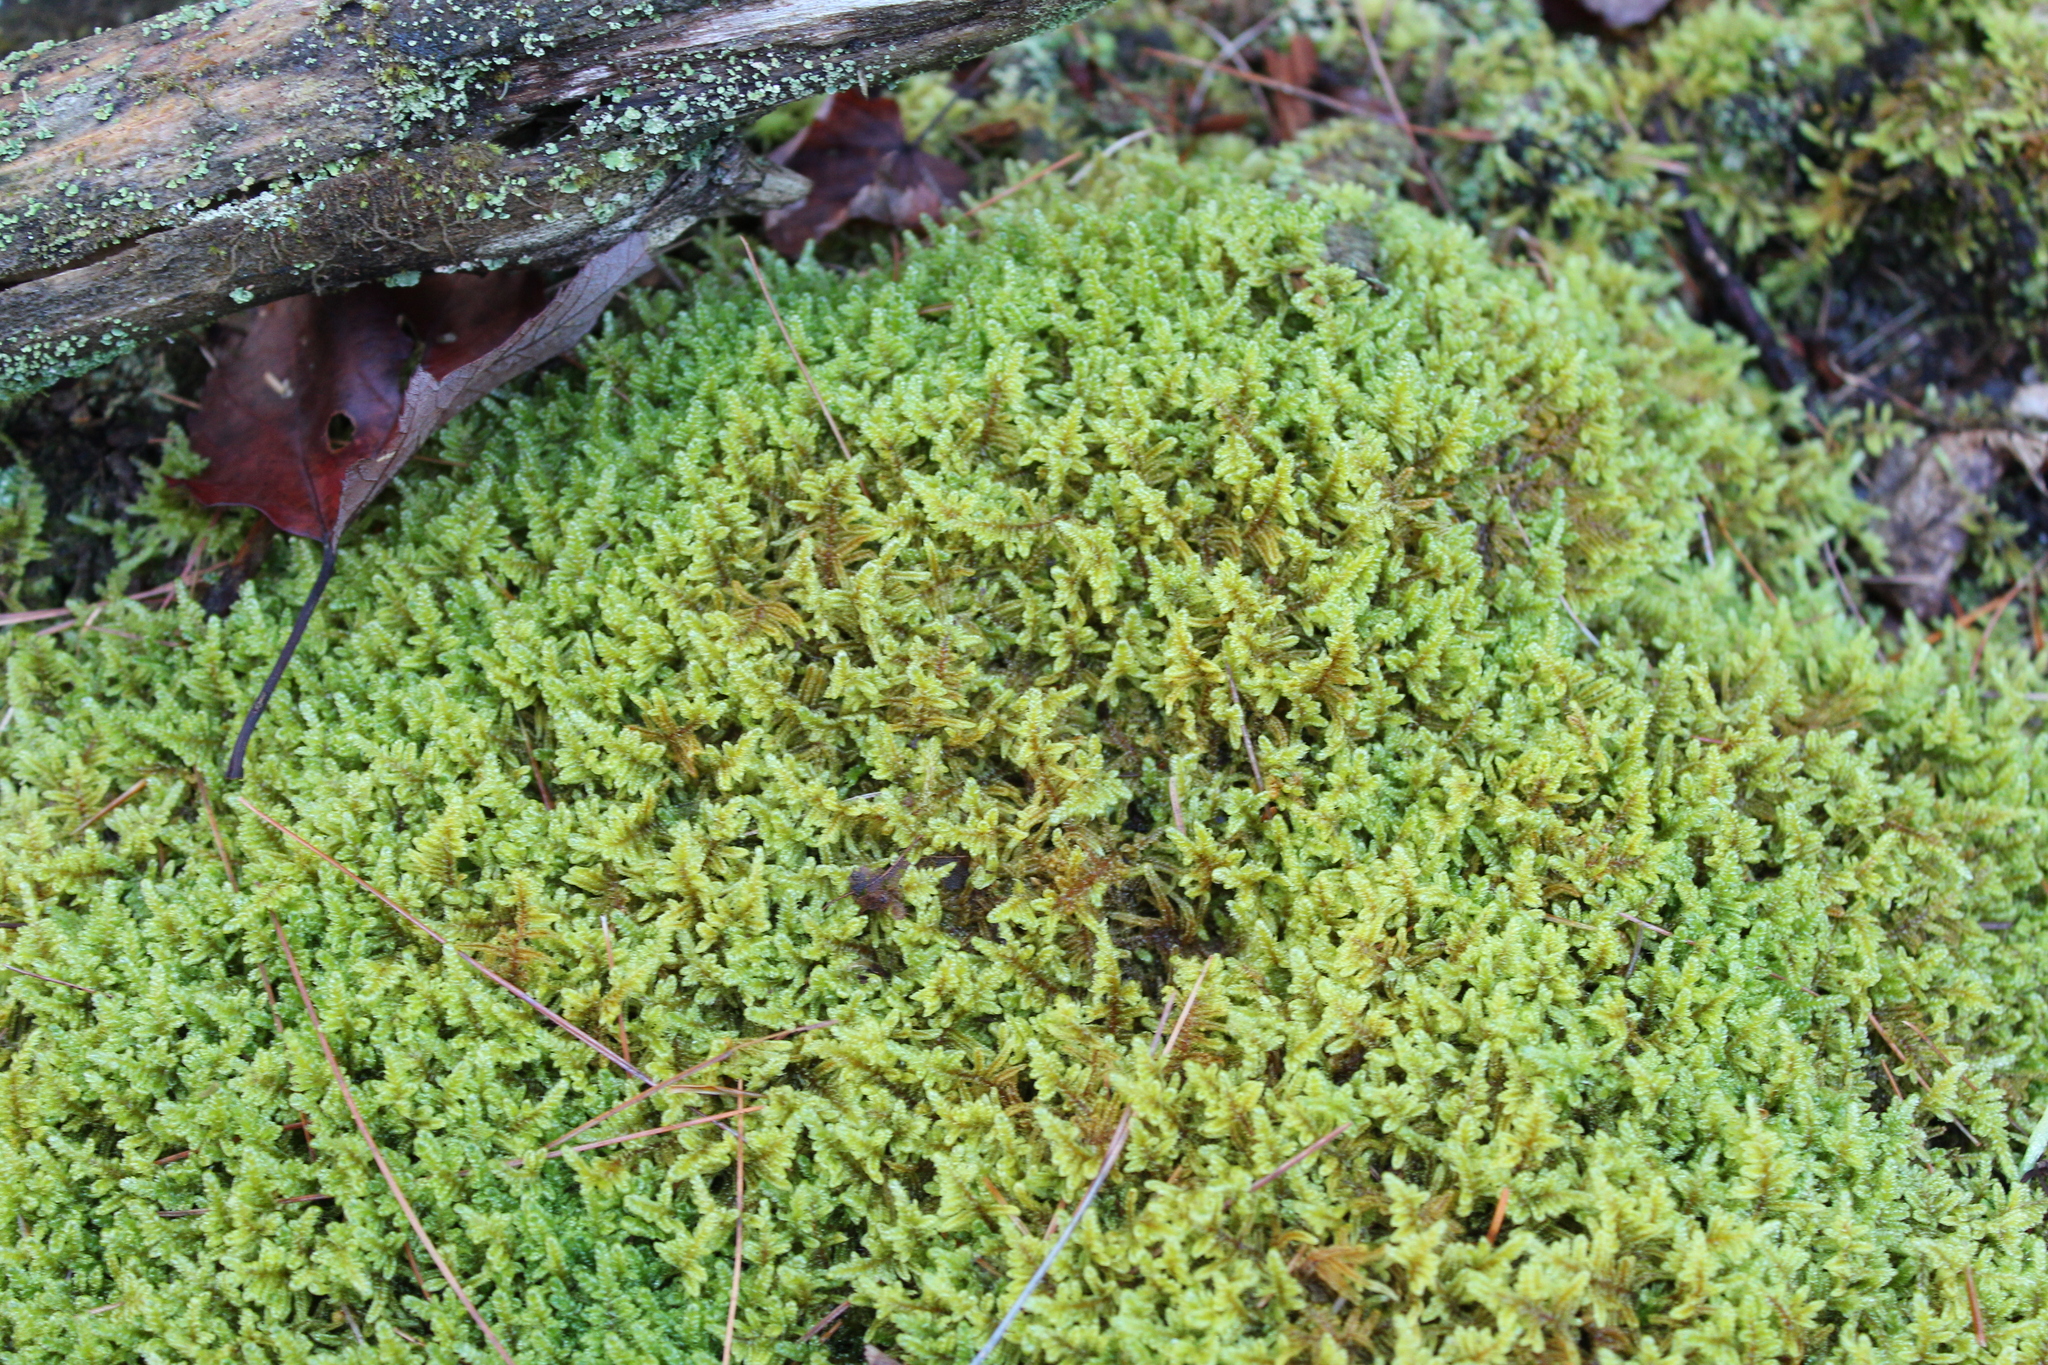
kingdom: Plantae
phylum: Bryophyta
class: Bryopsida
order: Hypnales
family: Callicladiaceae
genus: Callicladium
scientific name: Callicladium imponens
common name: Brocade moss
